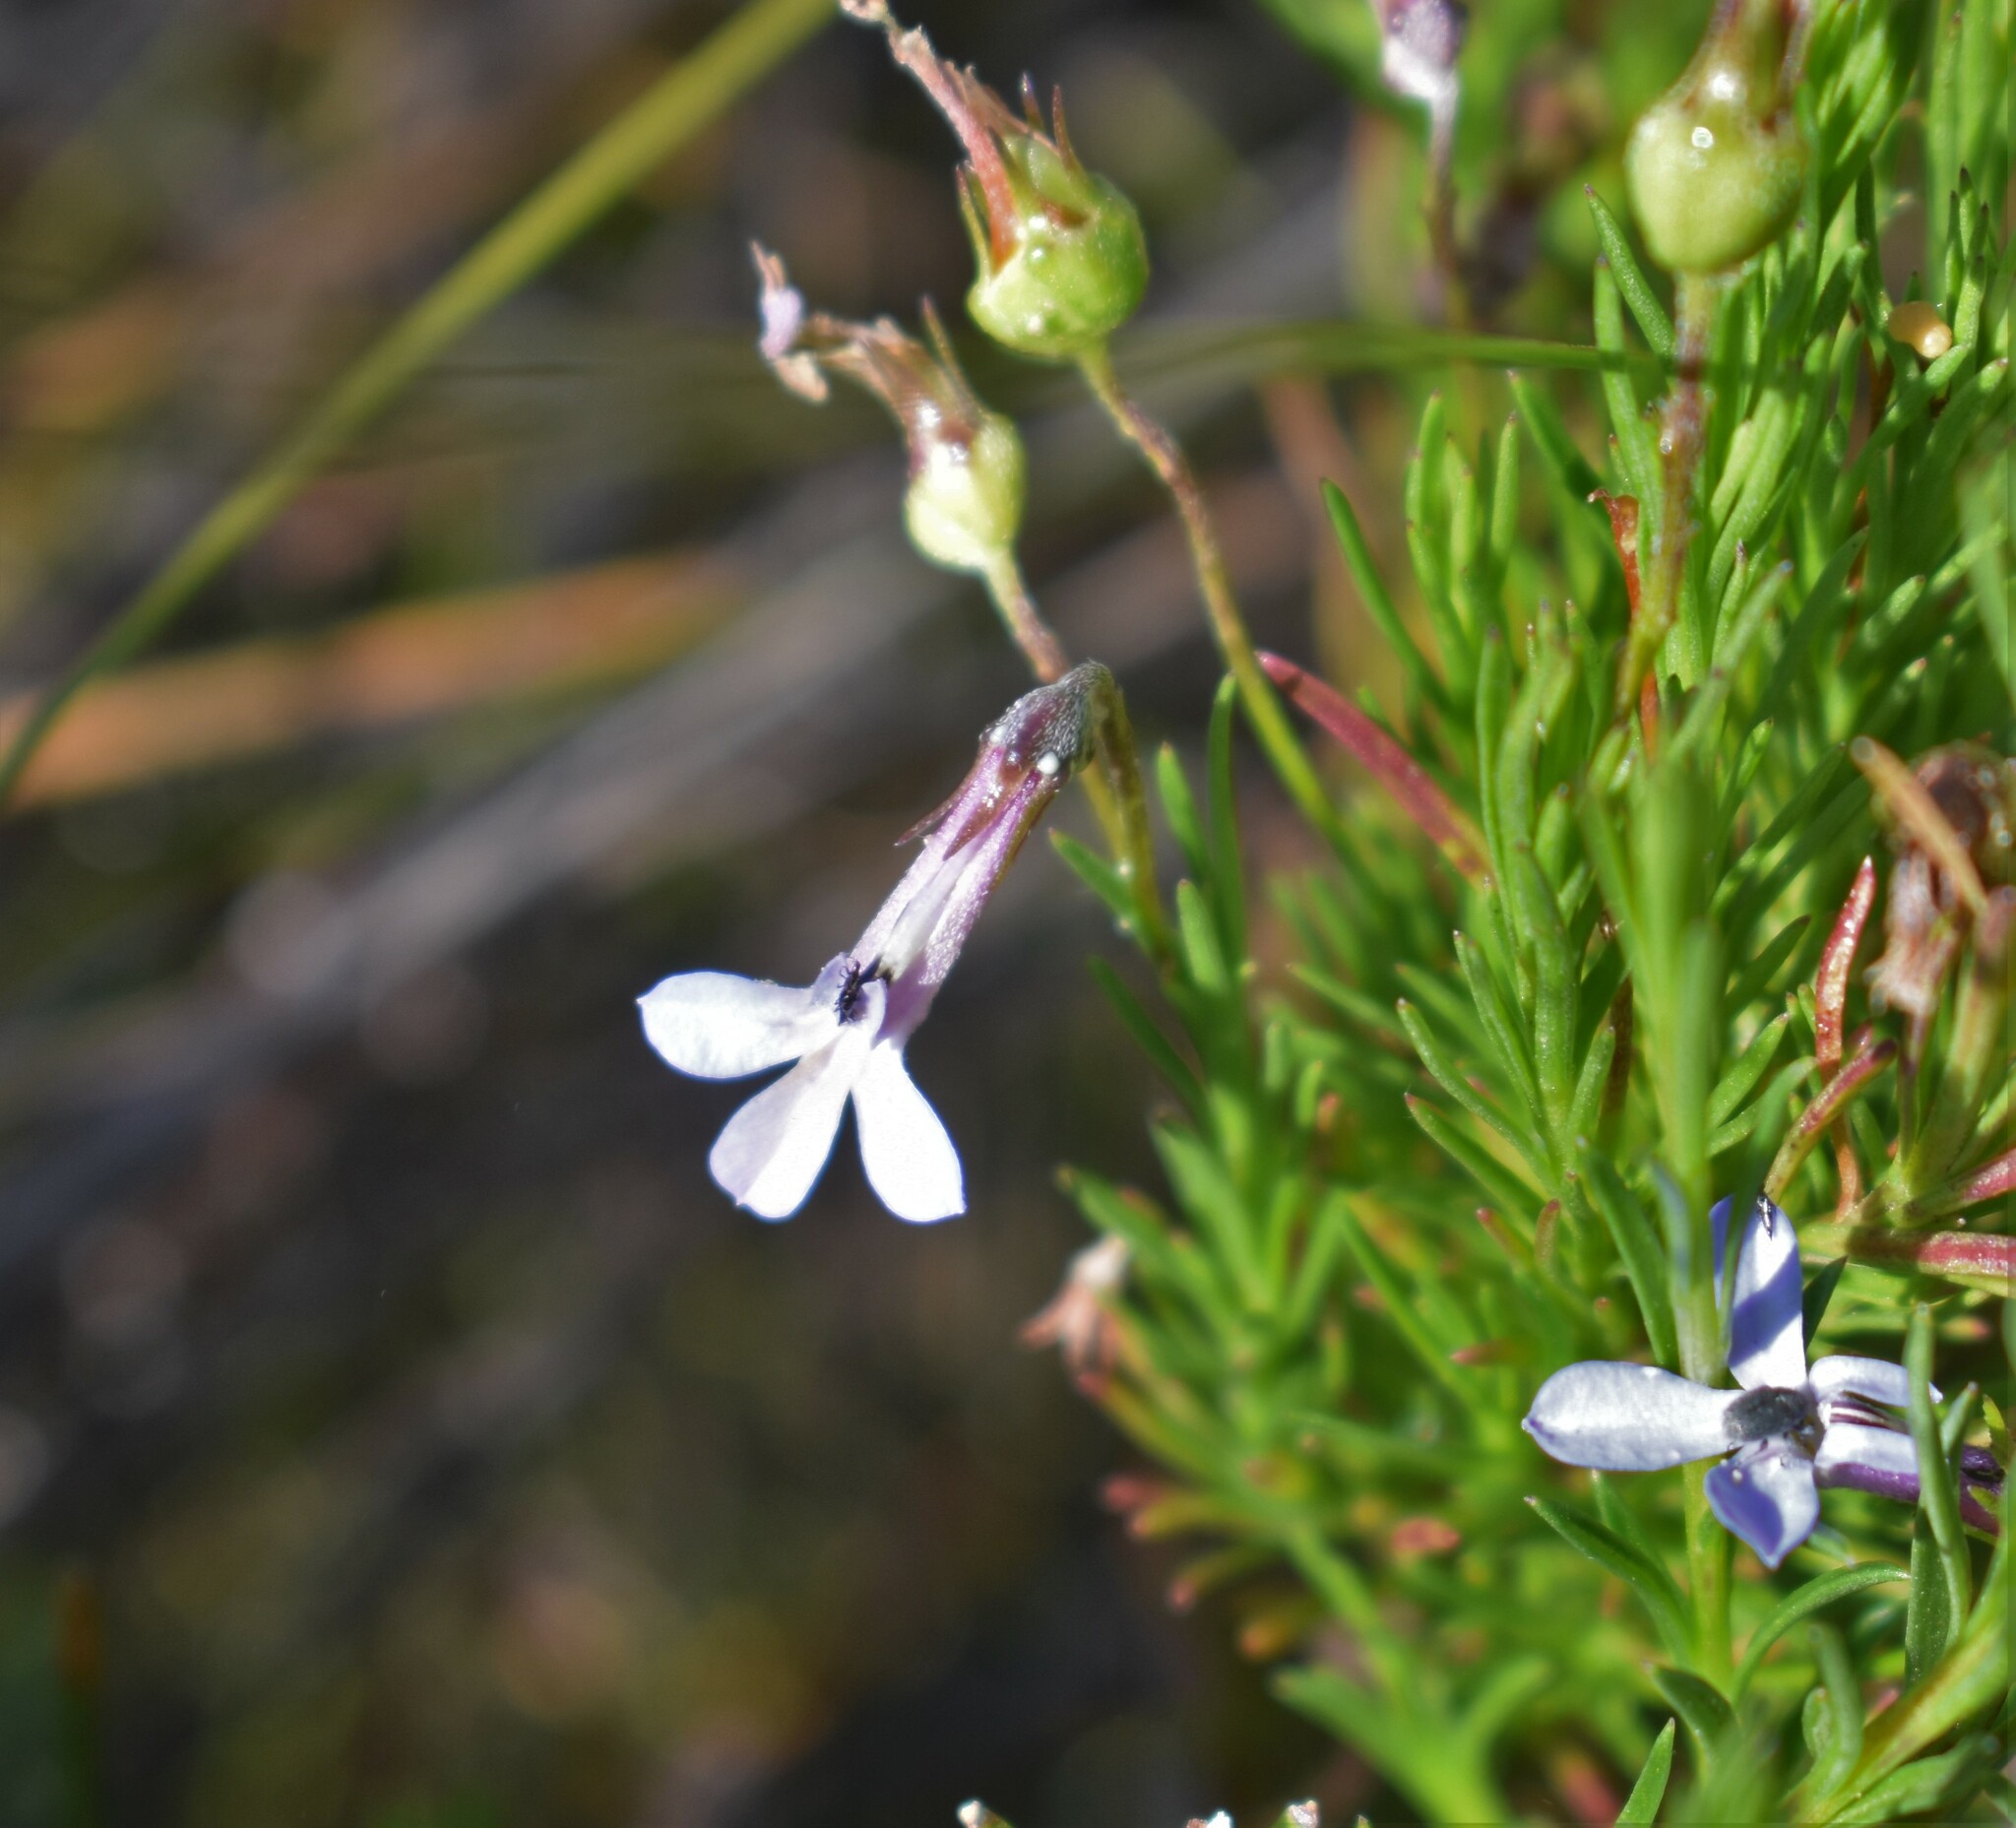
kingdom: Plantae
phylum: Tracheophyta
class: Magnoliopsida
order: Asterales
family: Campanulaceae
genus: Lobelia
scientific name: Lobelia pinifolia
